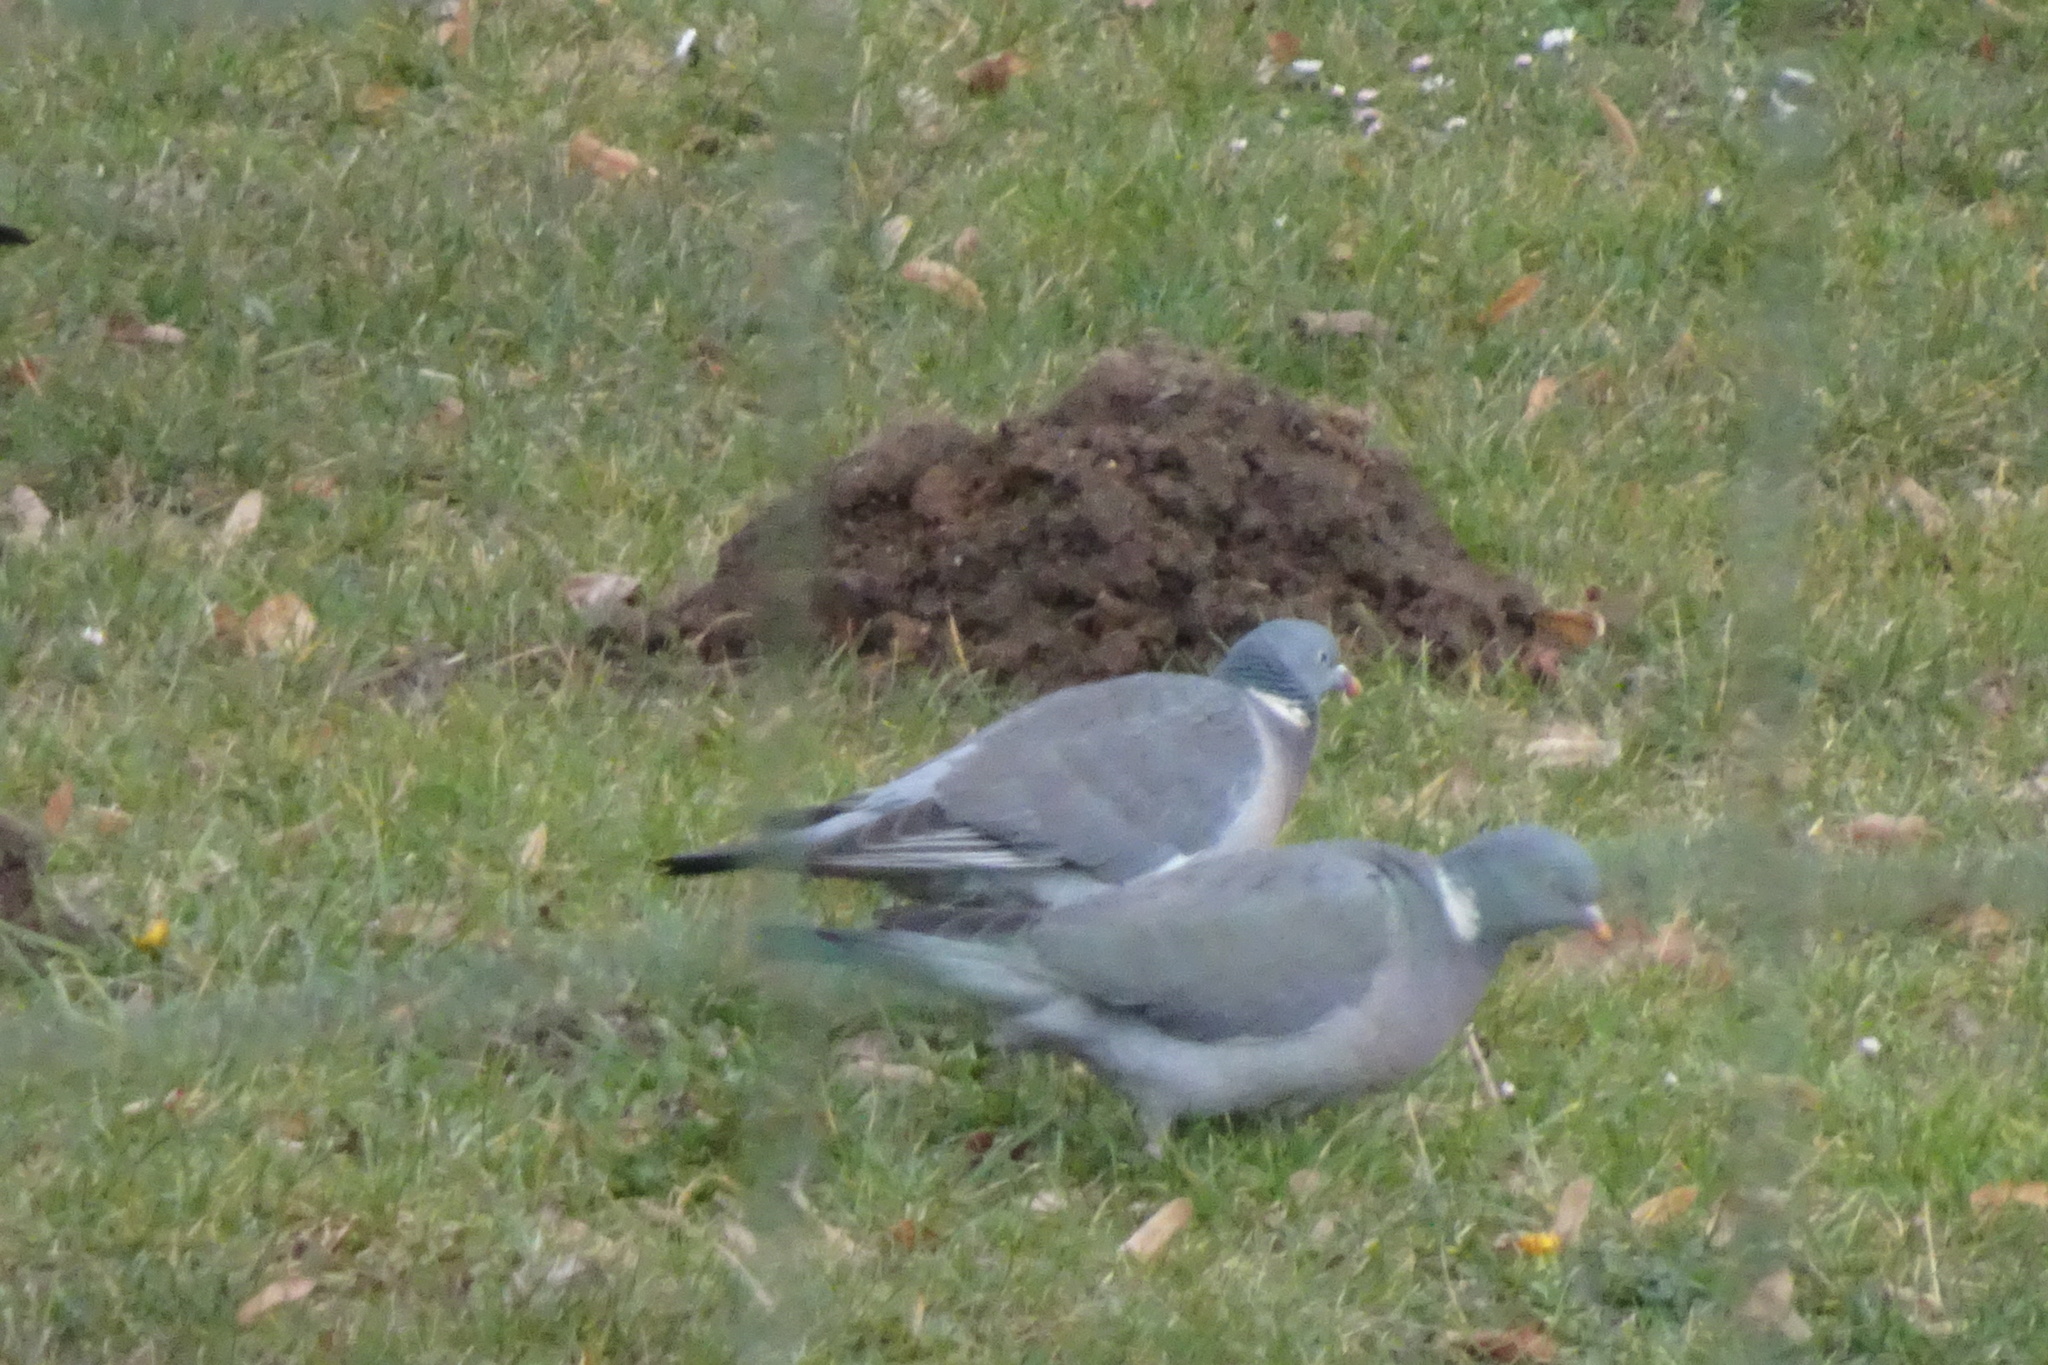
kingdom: Animalia
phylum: Chordata
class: Aves
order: Columbiformes
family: Columbidae
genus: Columba
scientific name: Columba palumbus
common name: Common wood pigeon
